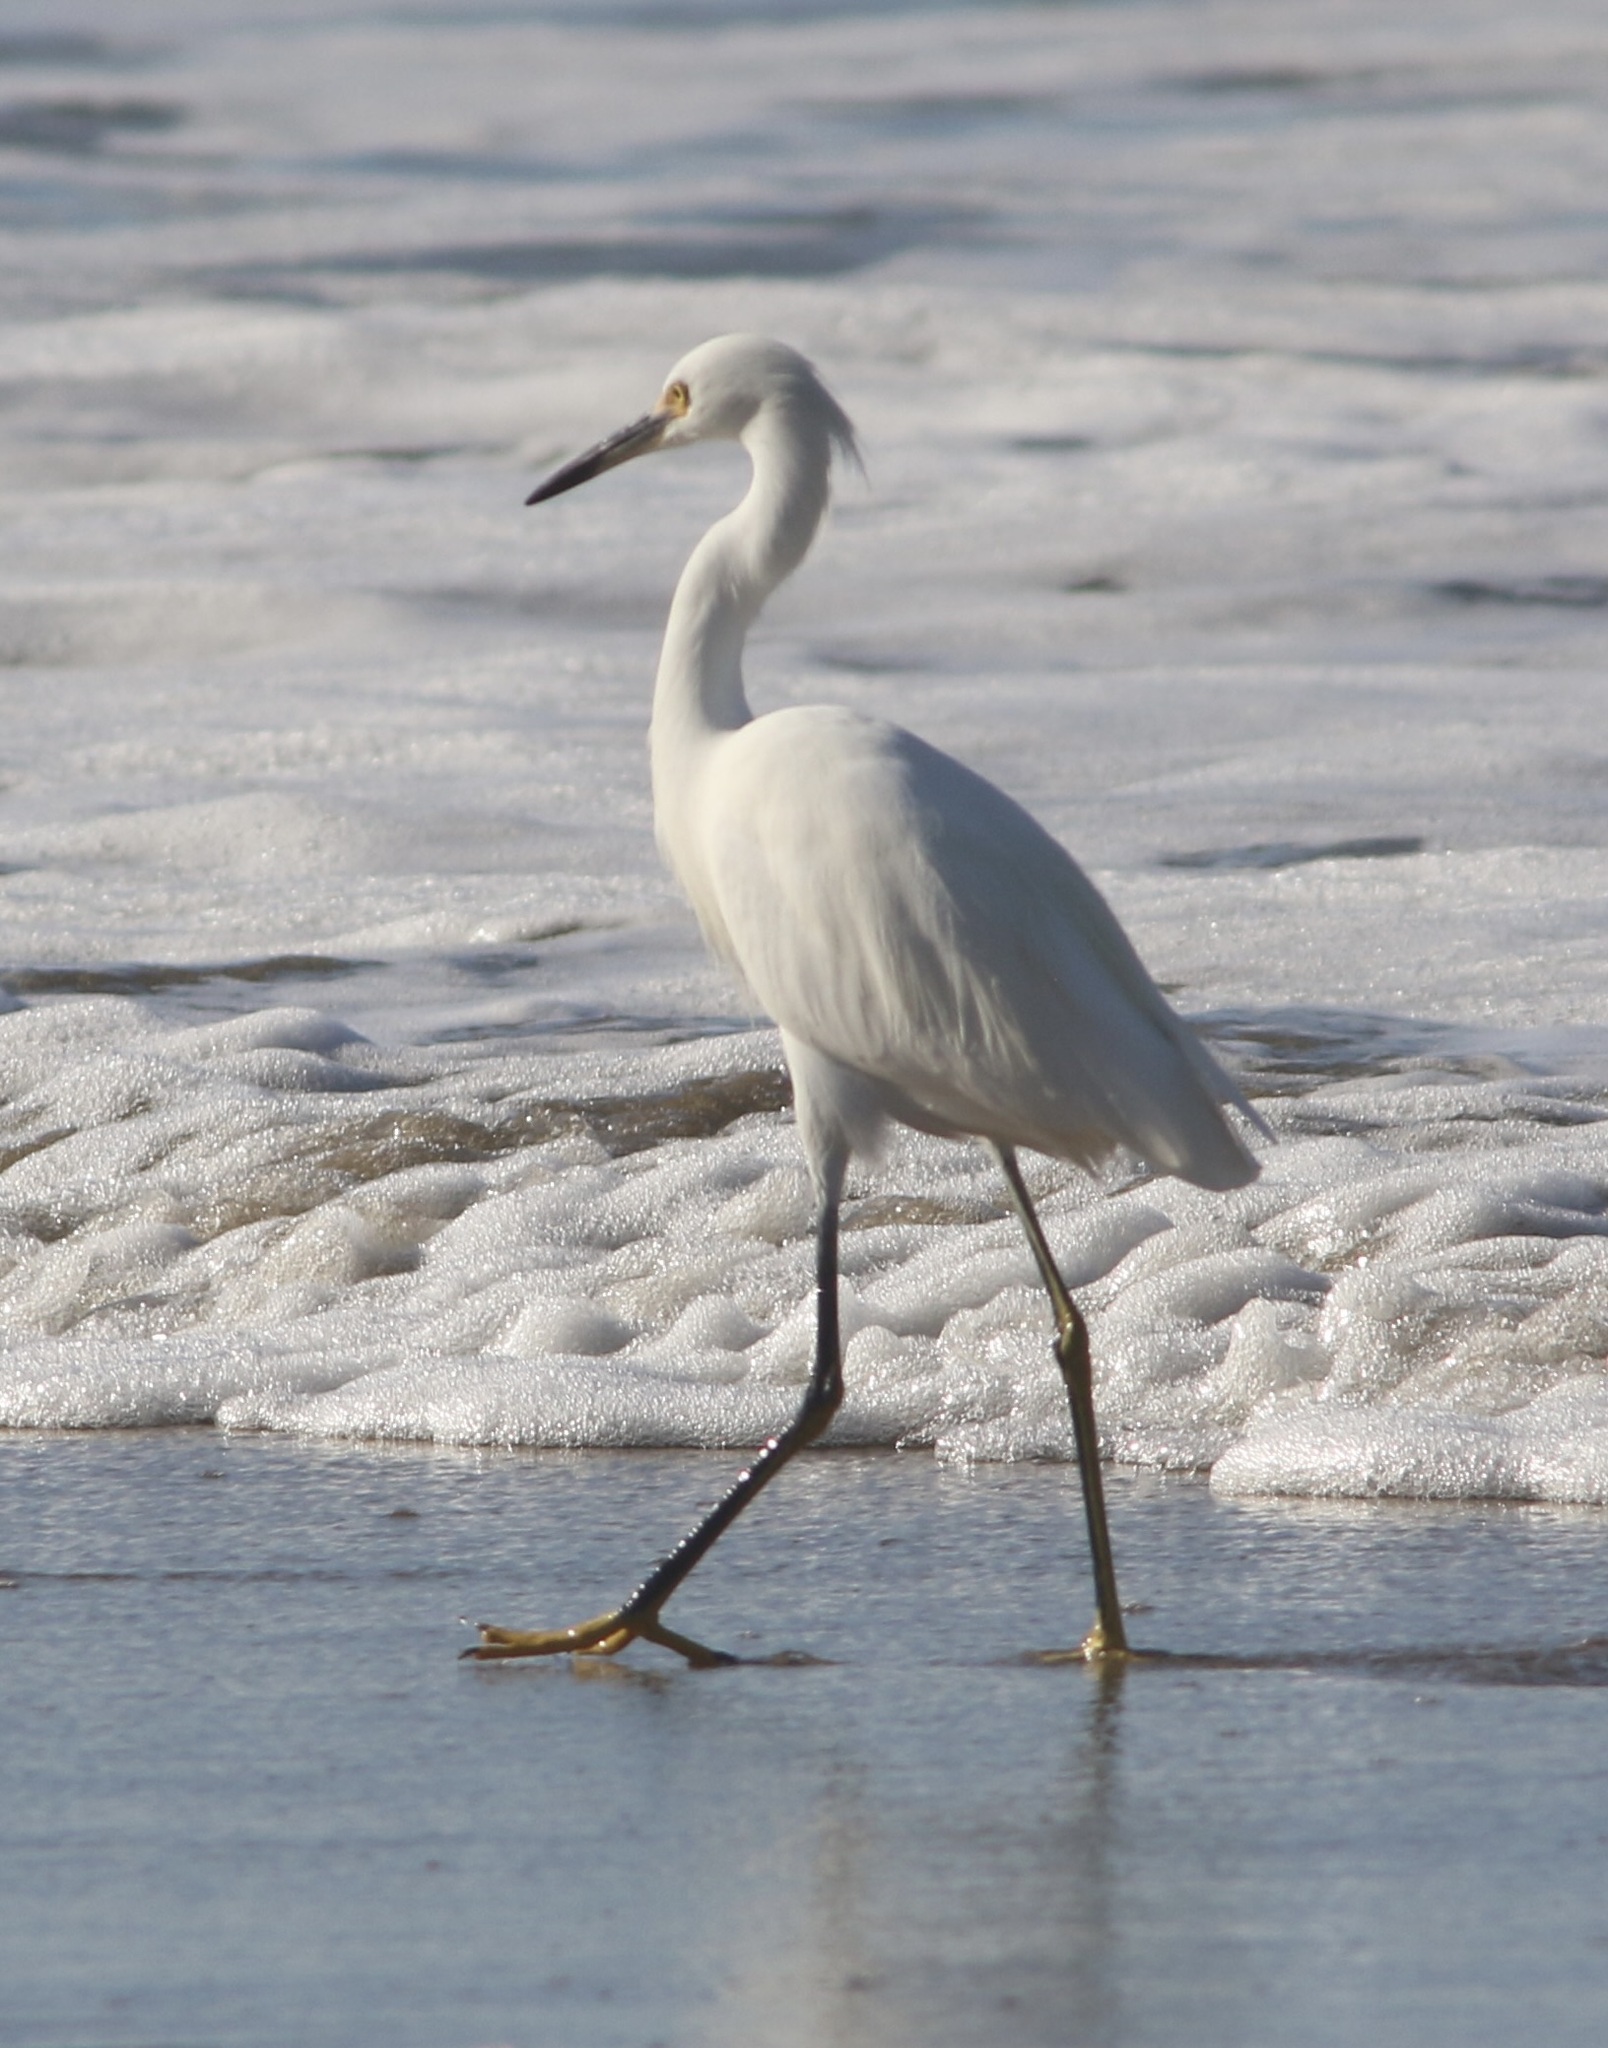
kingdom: Animalia
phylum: Chordata
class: Aves
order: Pelecaniformes
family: Ardeidae
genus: Egretta
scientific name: Egretta thula
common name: Snowy egret
